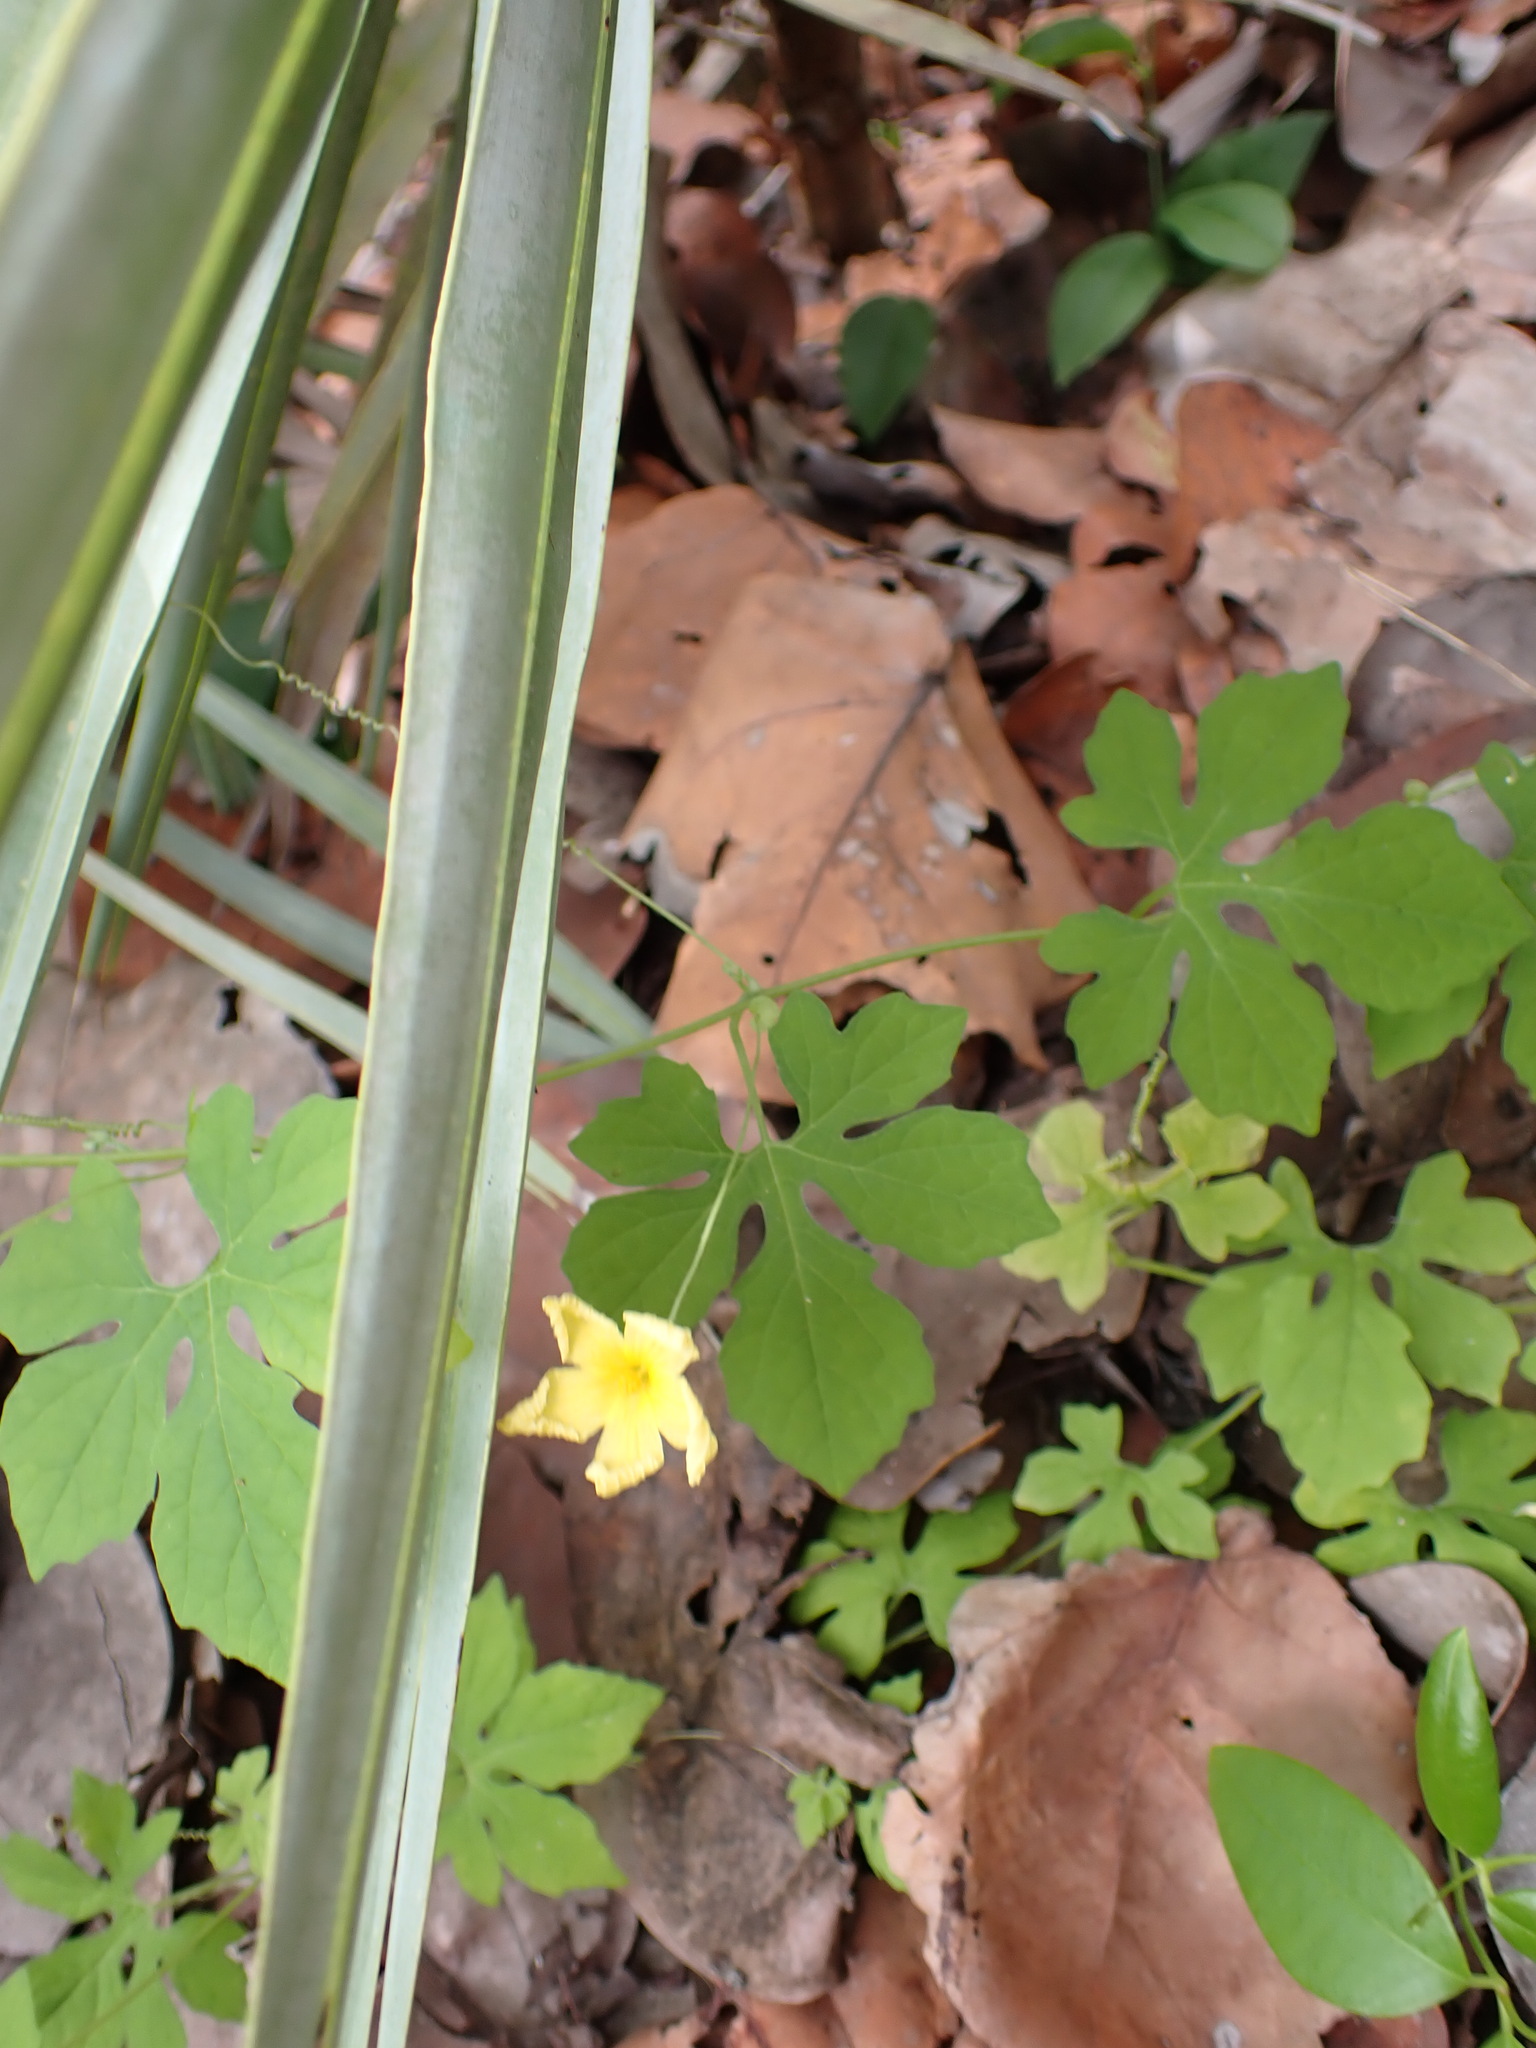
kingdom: Plantae
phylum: Tracheophyta
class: Magnoliopsida
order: Cucurbitales
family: Cucurbitaceae
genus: Momordica
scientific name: Momordica charantia
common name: Balsampear
